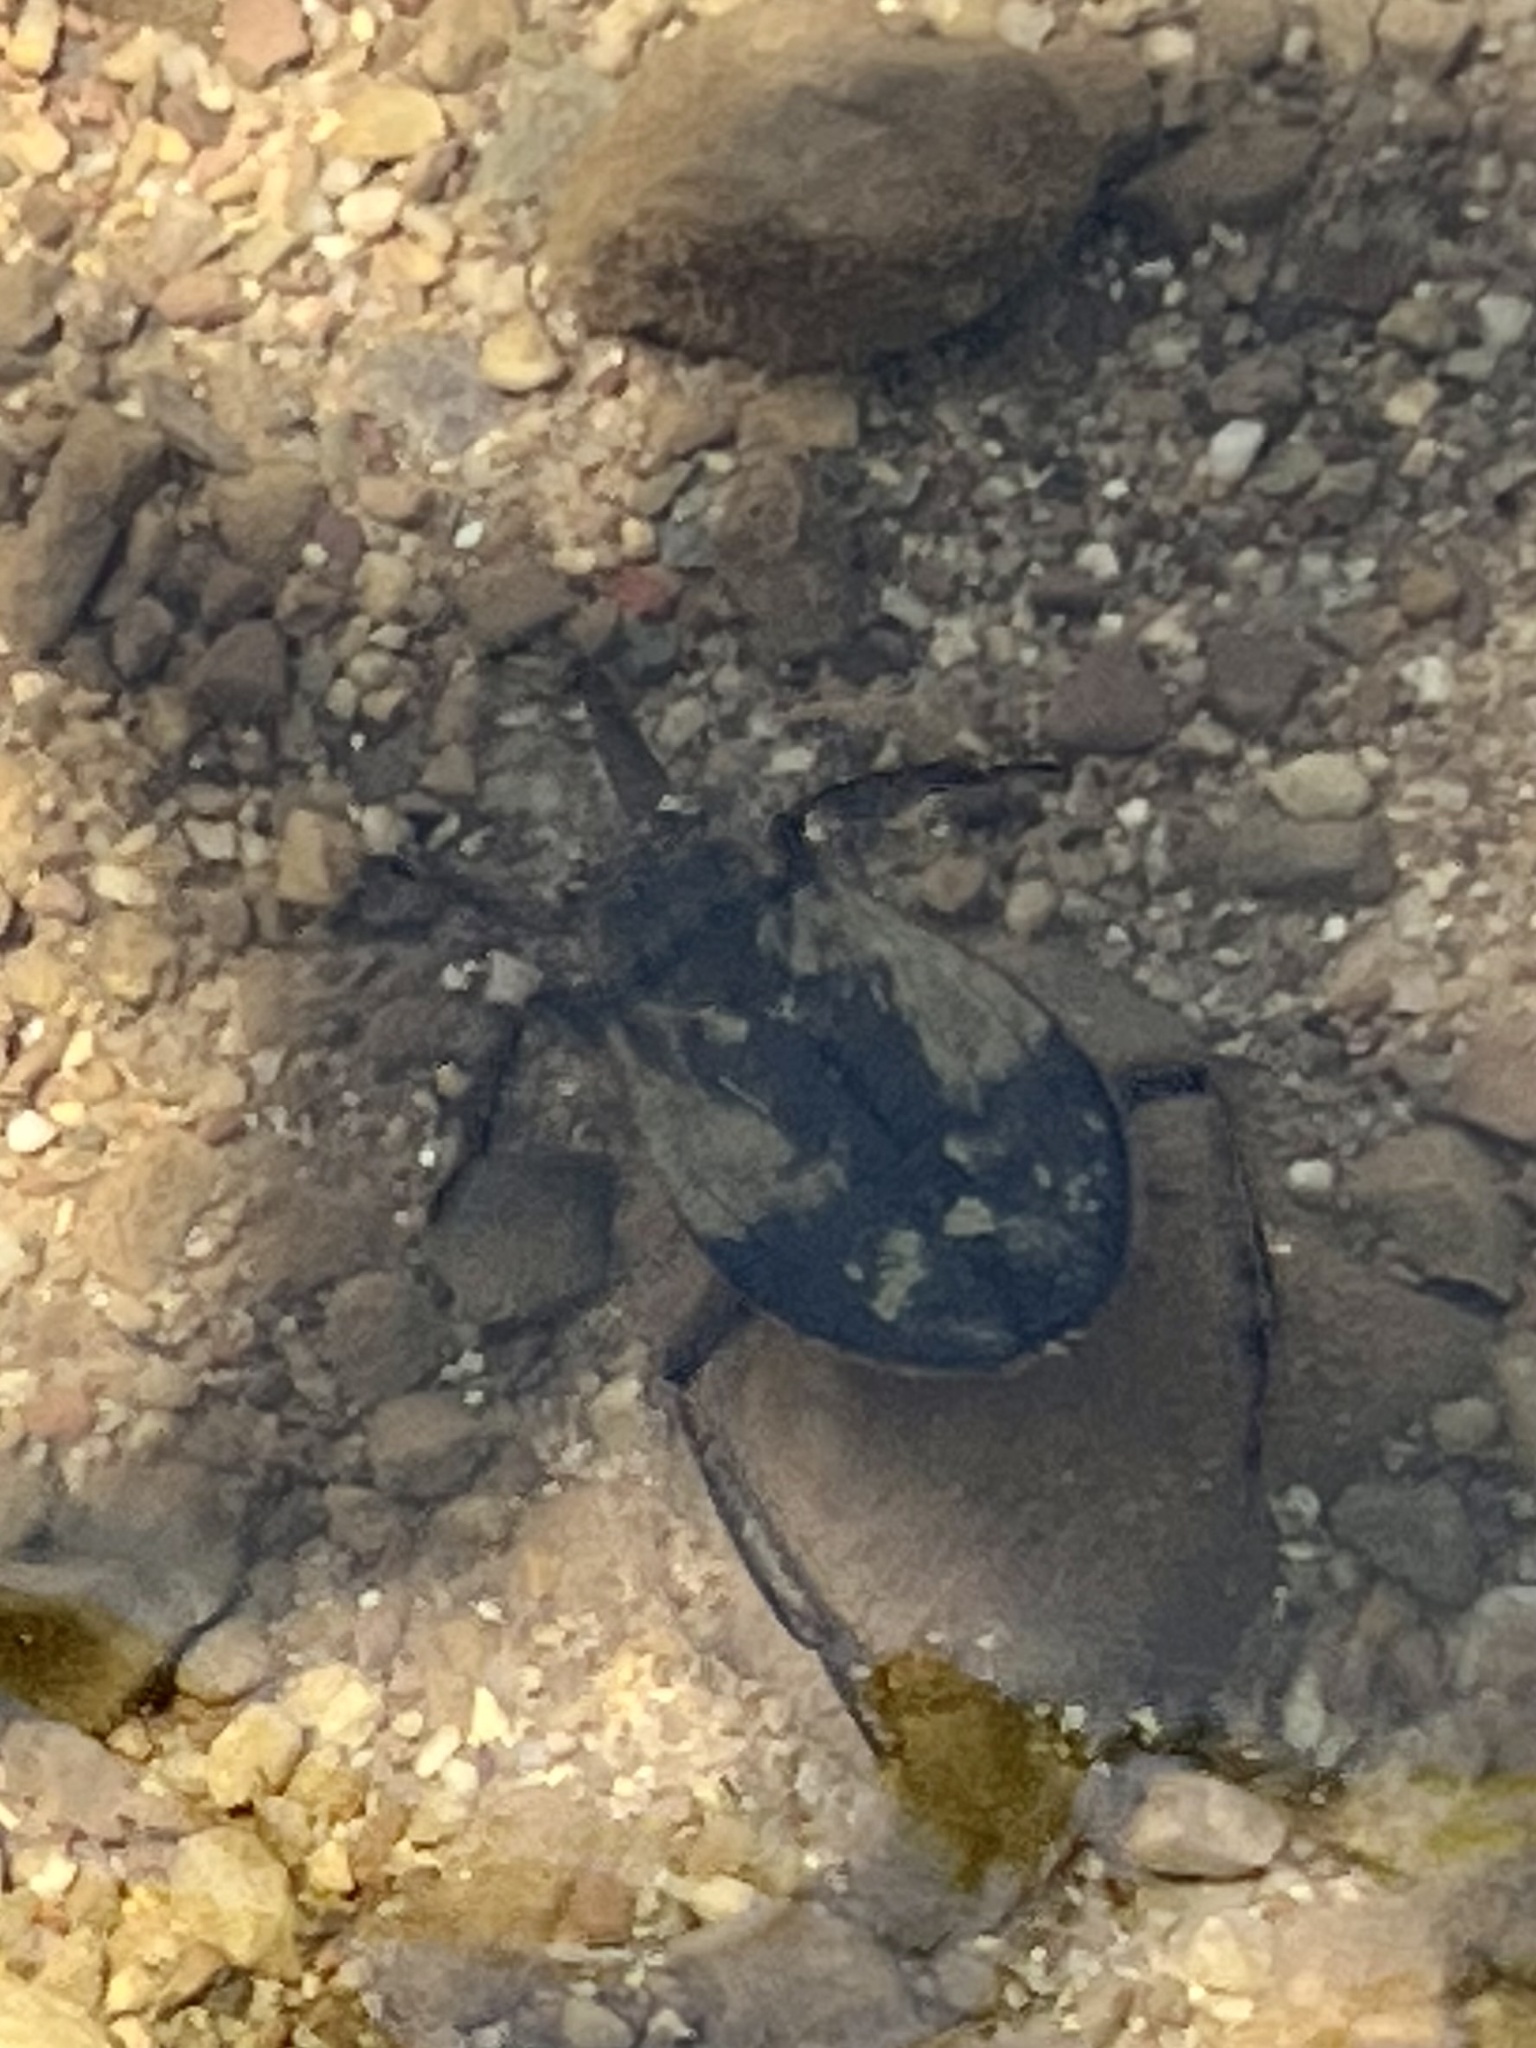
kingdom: Animalia
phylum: Arthropoda
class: Insecta
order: Hemiptera
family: Belostomatidae
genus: Abedus
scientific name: Abedus
